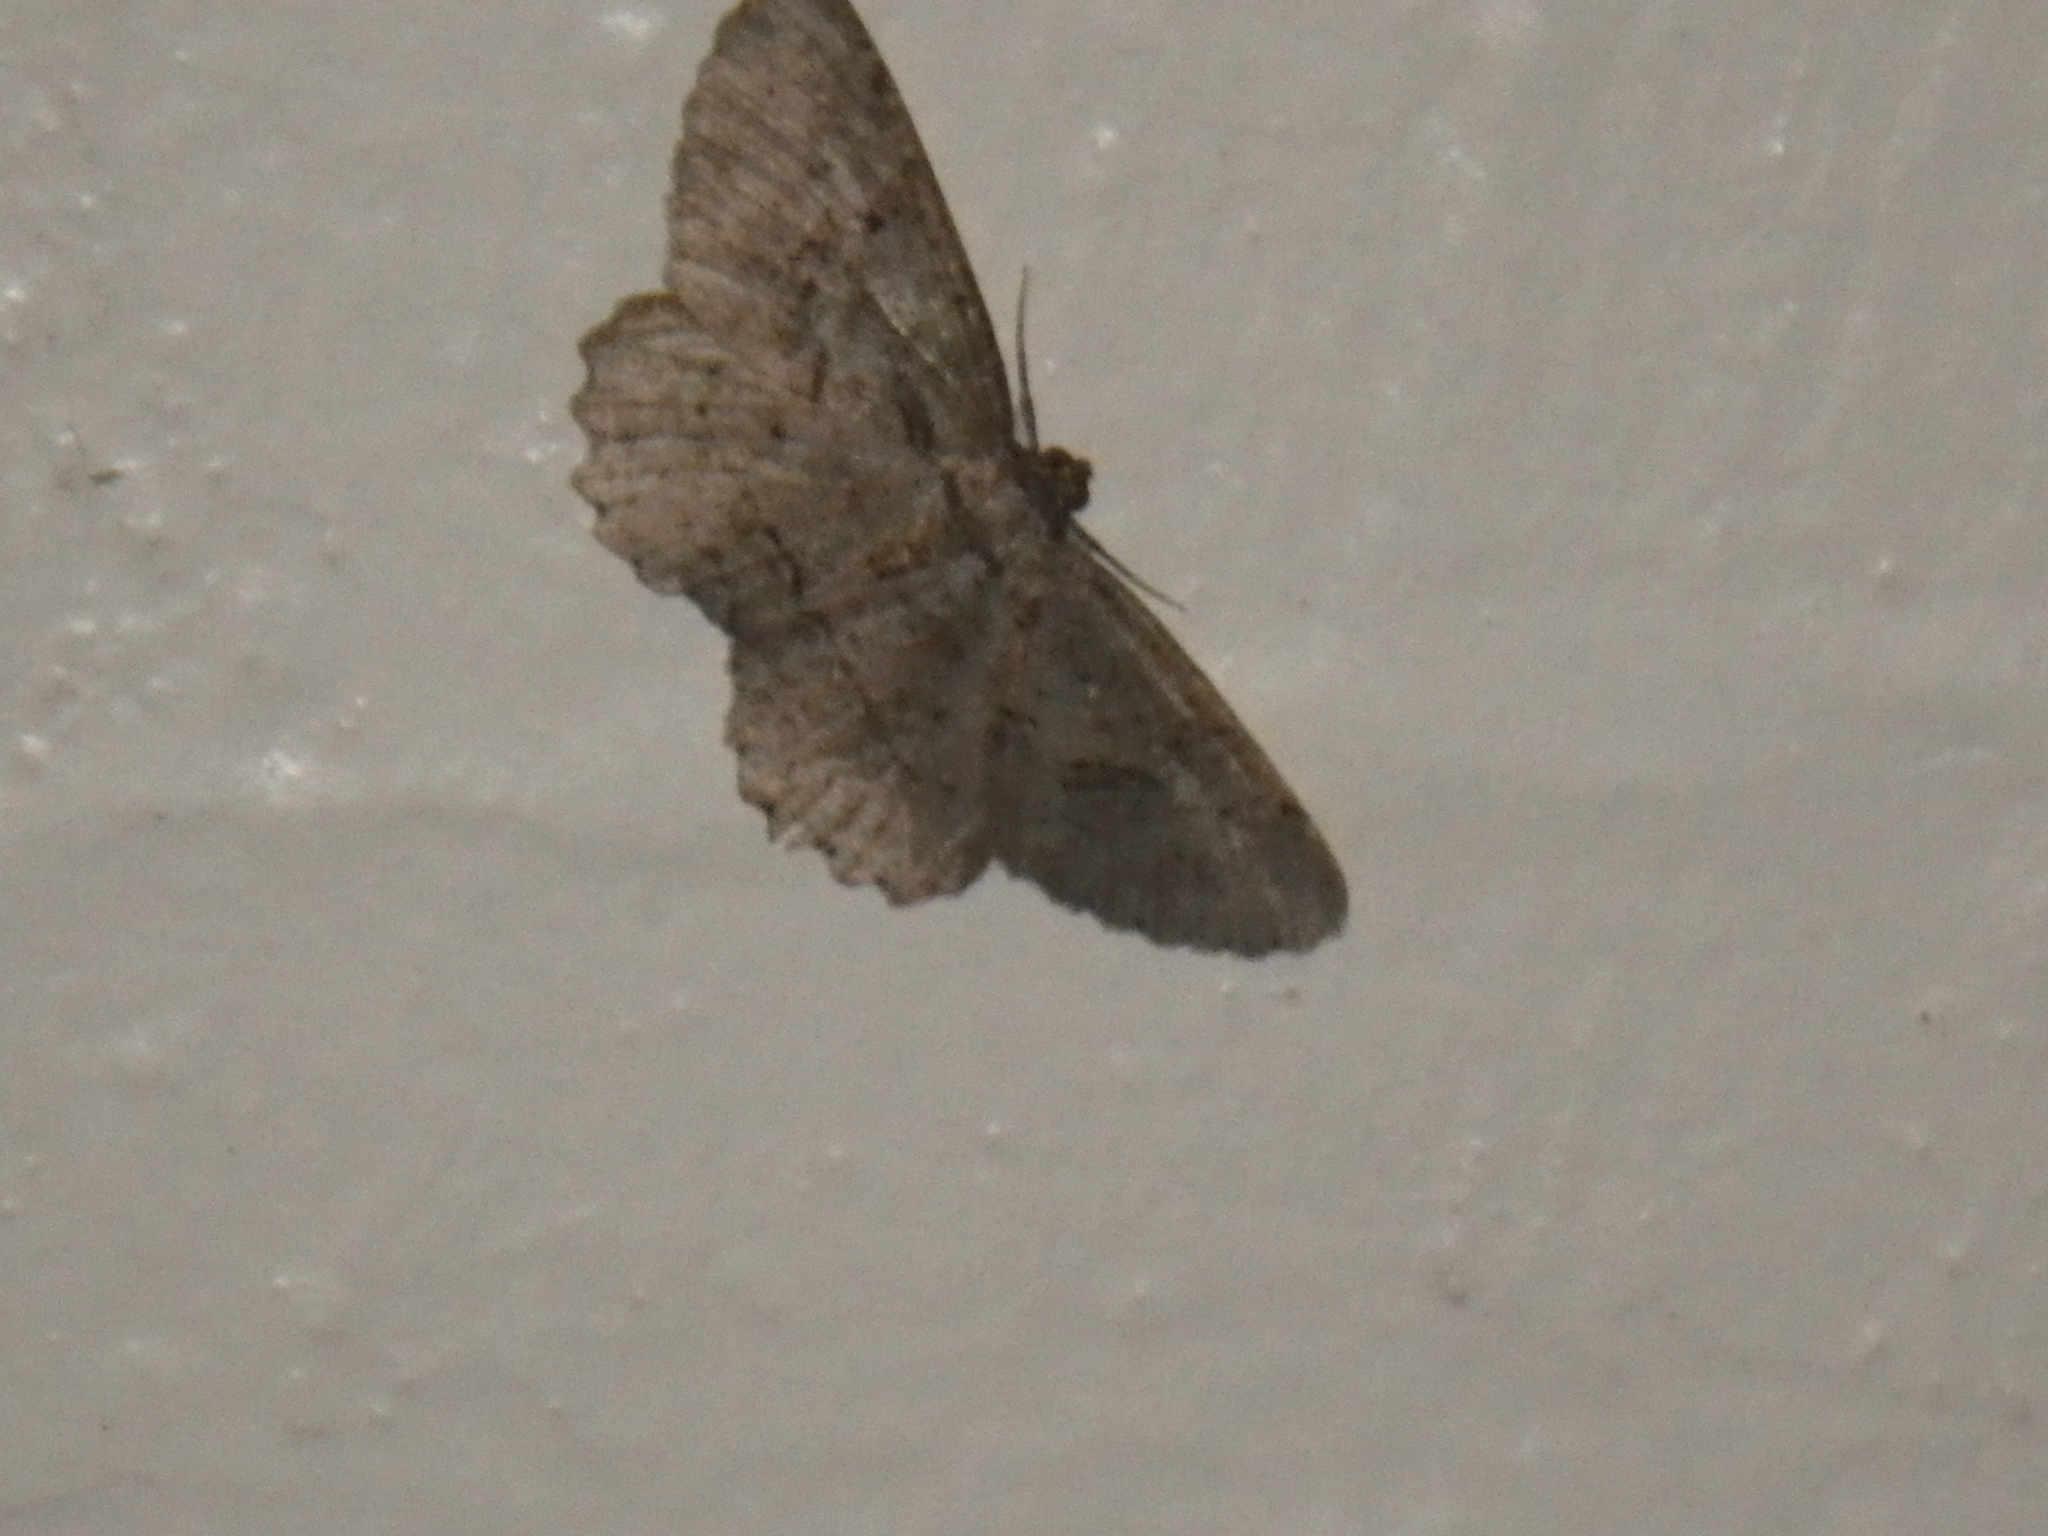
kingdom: Animalia
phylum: Arthropoda
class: Insecta
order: Lepidoptera
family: Geometridae
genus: Neoalcis
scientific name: Neoalcis californiaria
